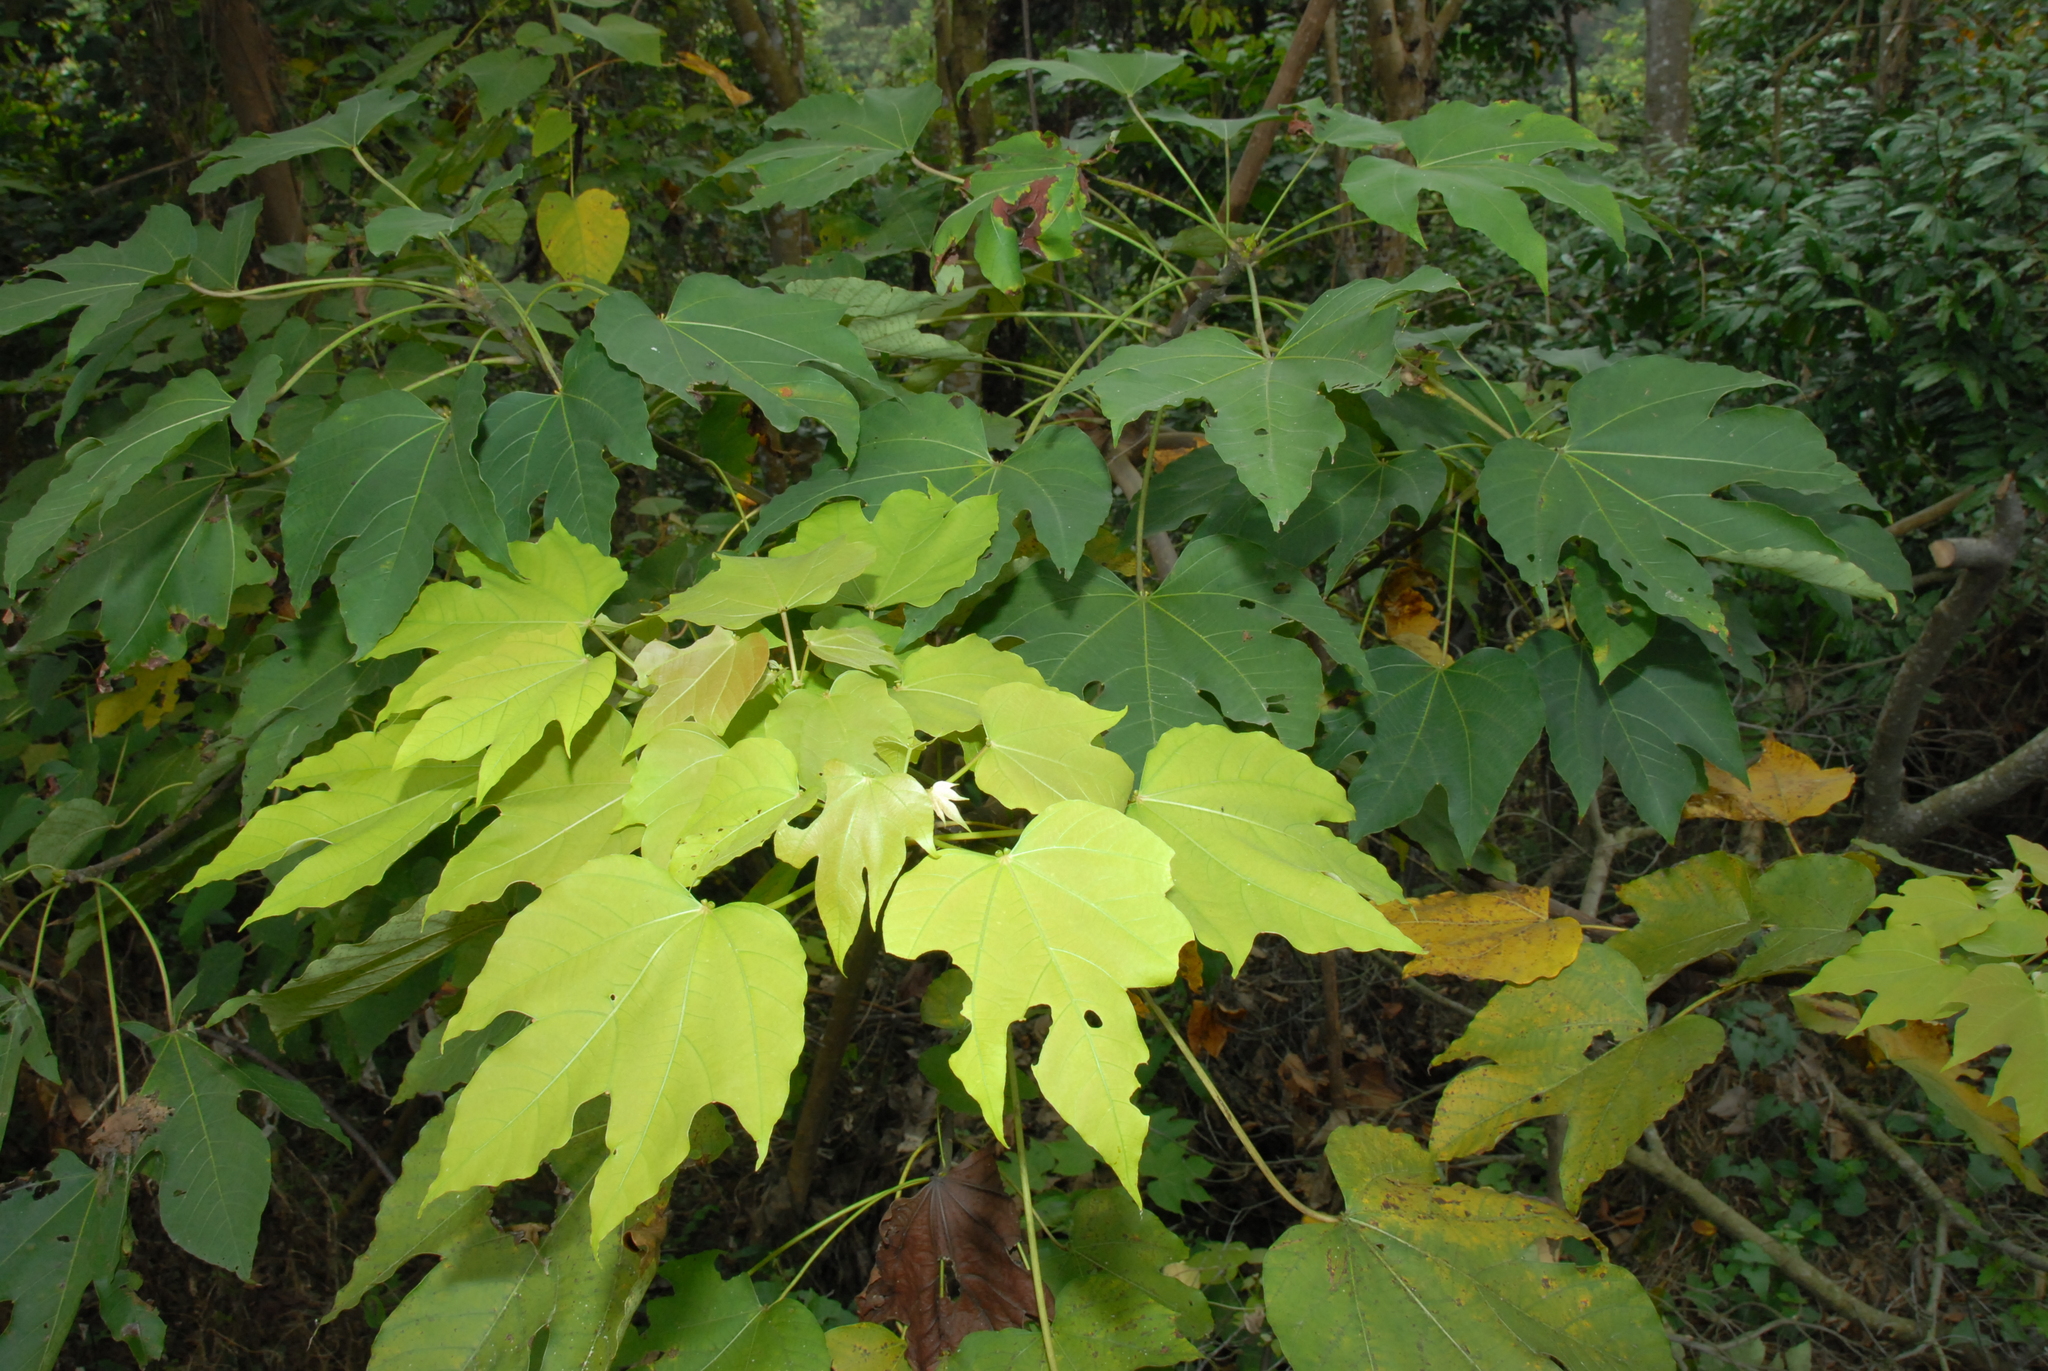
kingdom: Plantae
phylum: Tracheophyta
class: Magnoliopsida
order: Malpighiales
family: Euphorbiaceae
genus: Vernicia
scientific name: Vernicia montana
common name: Mu oil tree
